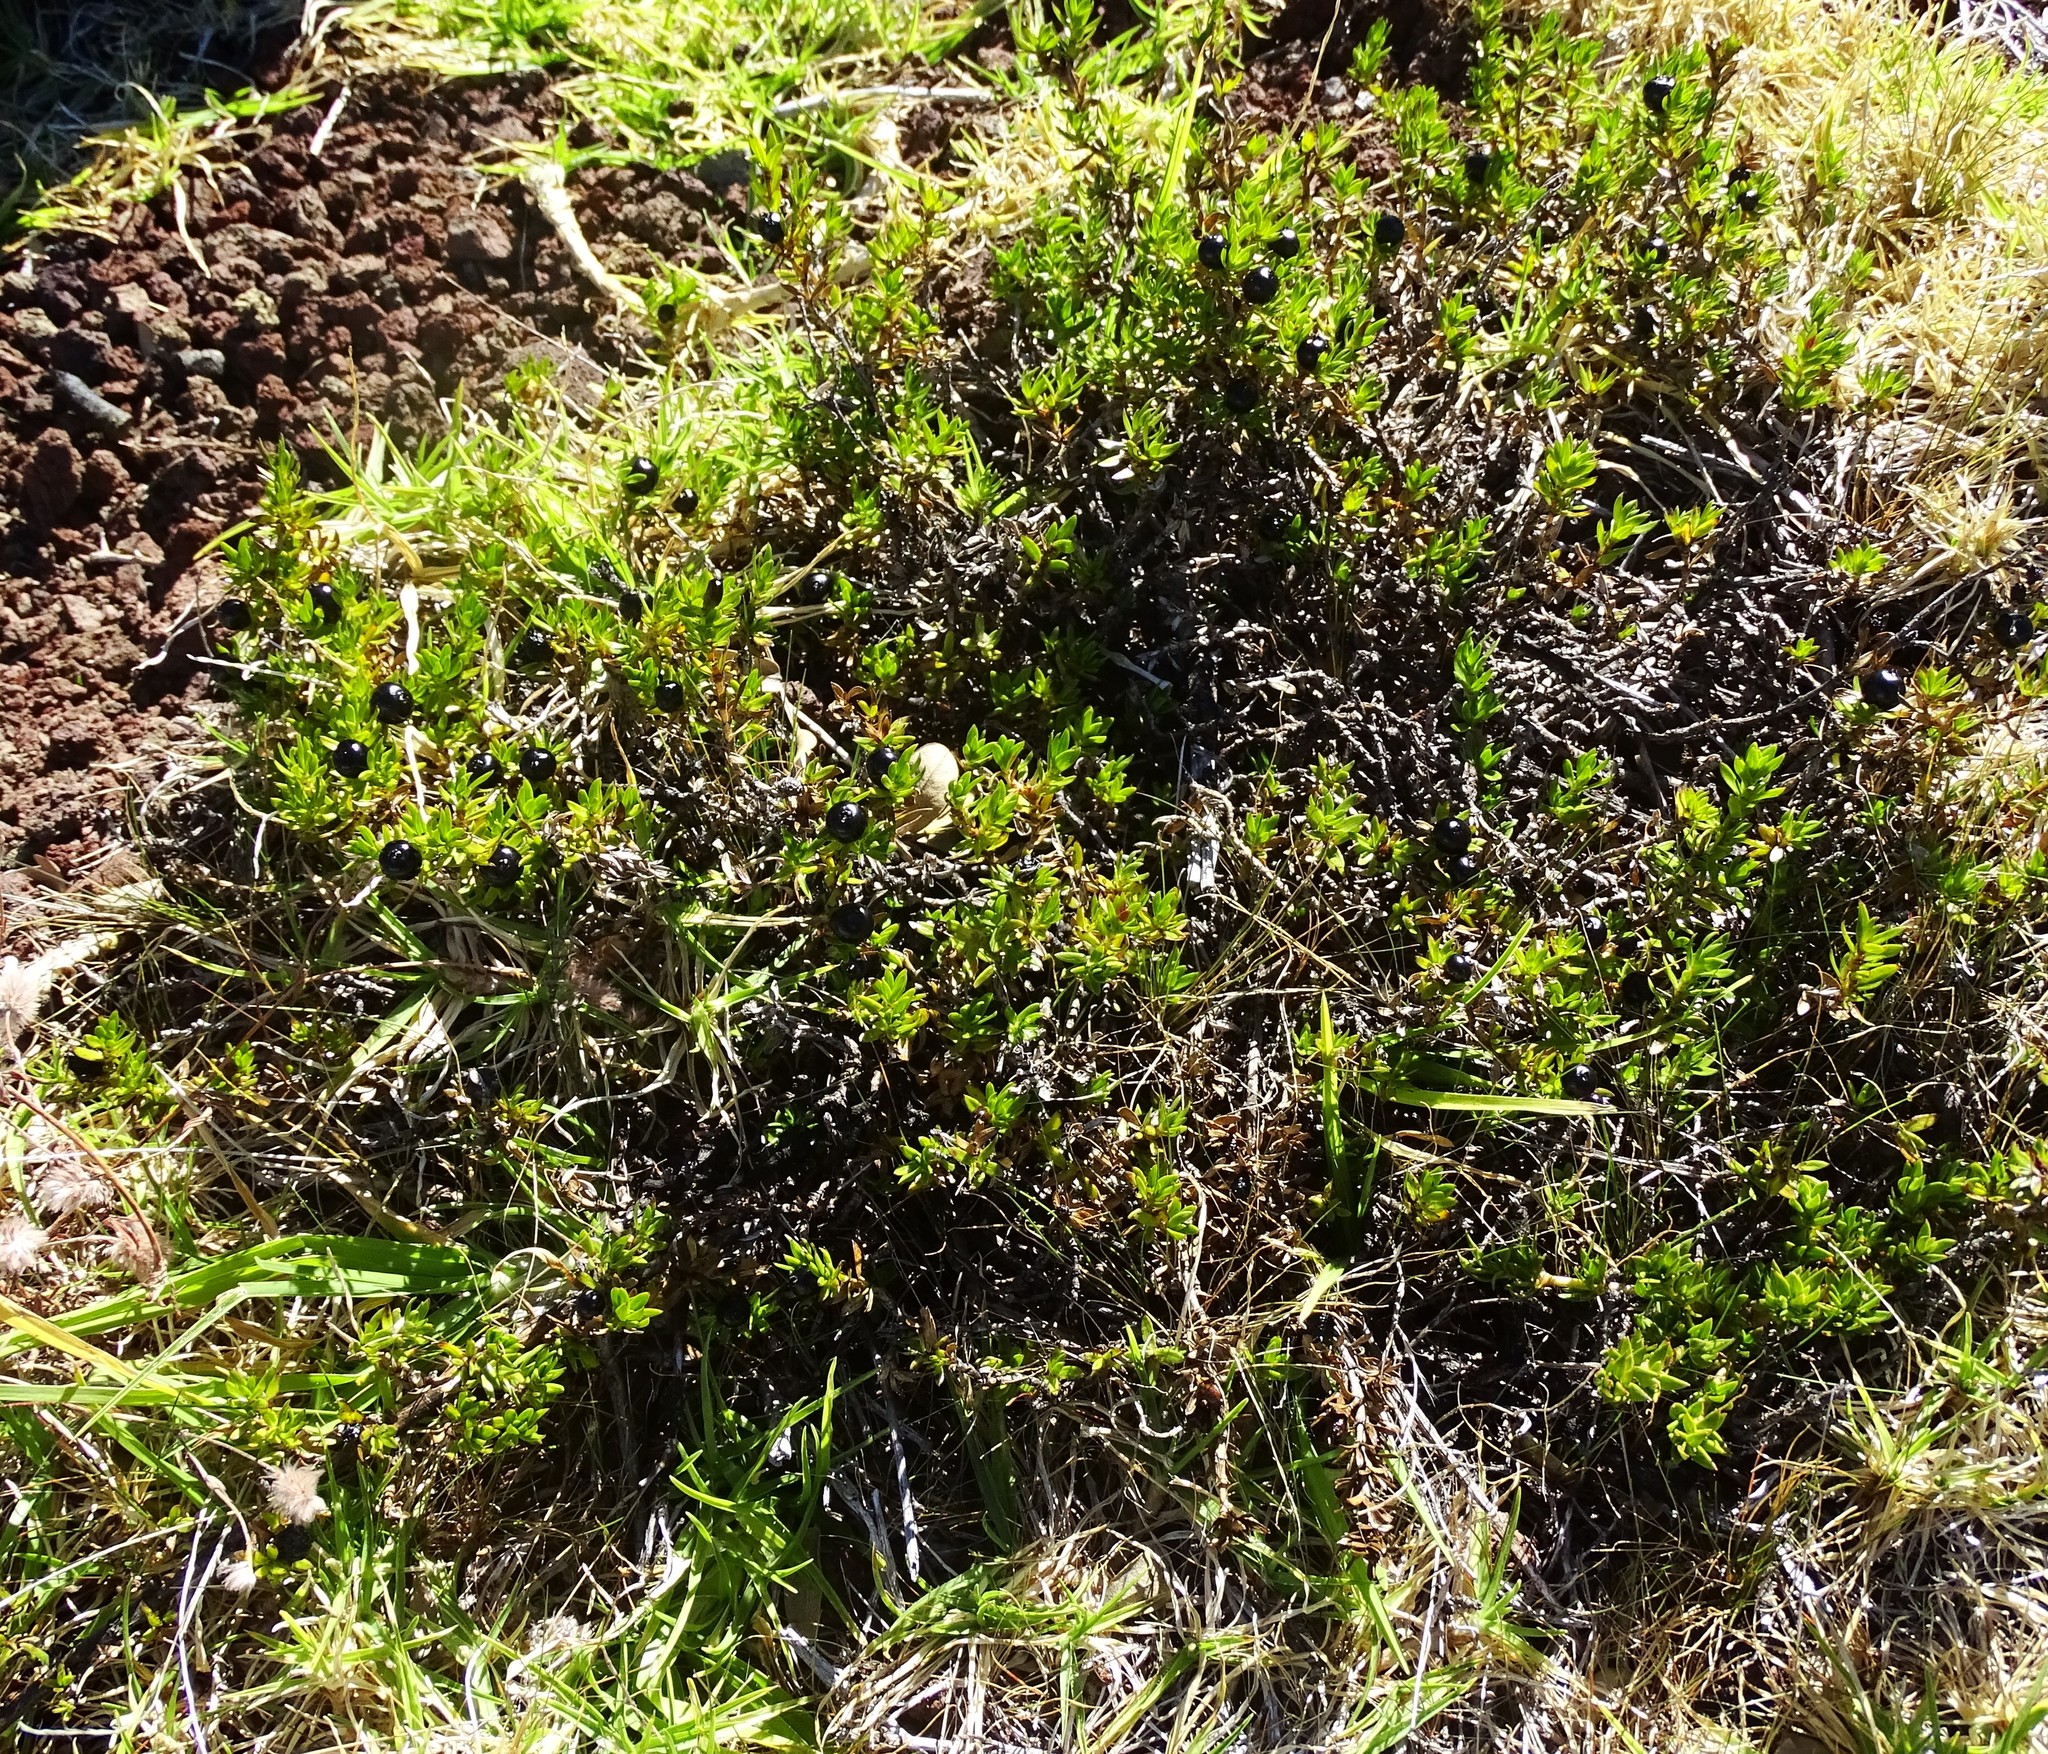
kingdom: Plantae
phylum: Tracheophyta
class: Magnoliopsida
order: Gentianales
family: Rubiaceae
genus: Coprosma
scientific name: Coprosma ernodeoides
